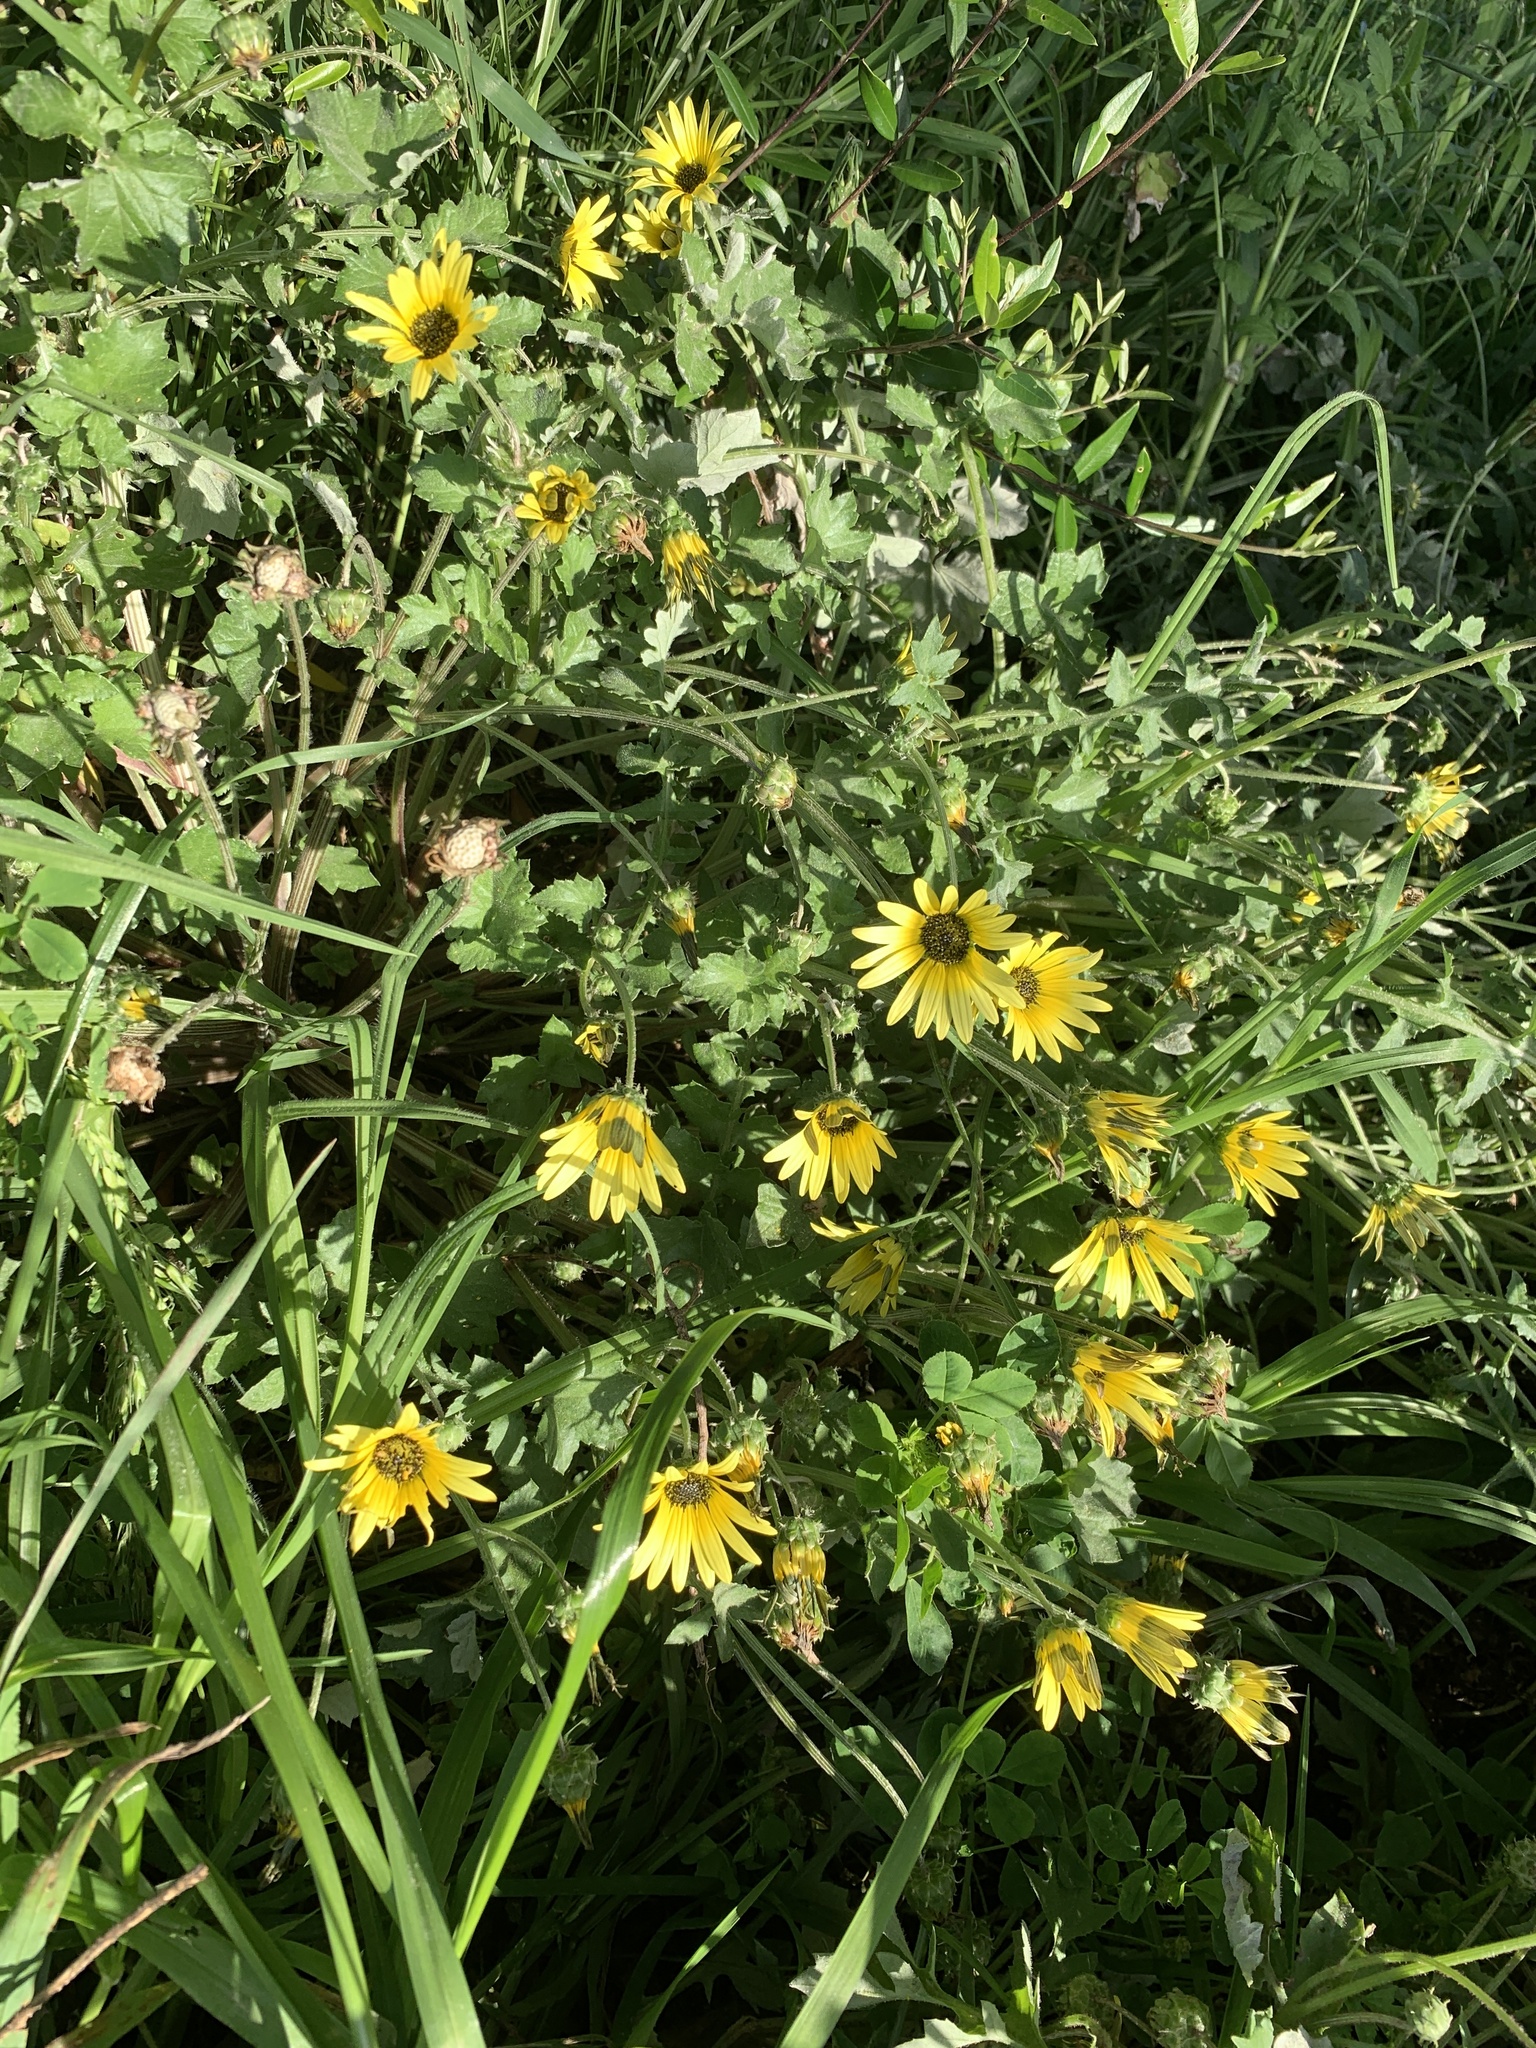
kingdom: Plantae
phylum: Tracheophyta
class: Magnoliopsida
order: Asterales
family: Asteraceae
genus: Arctotheca
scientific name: Arctotheca calendula
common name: Capeweed
